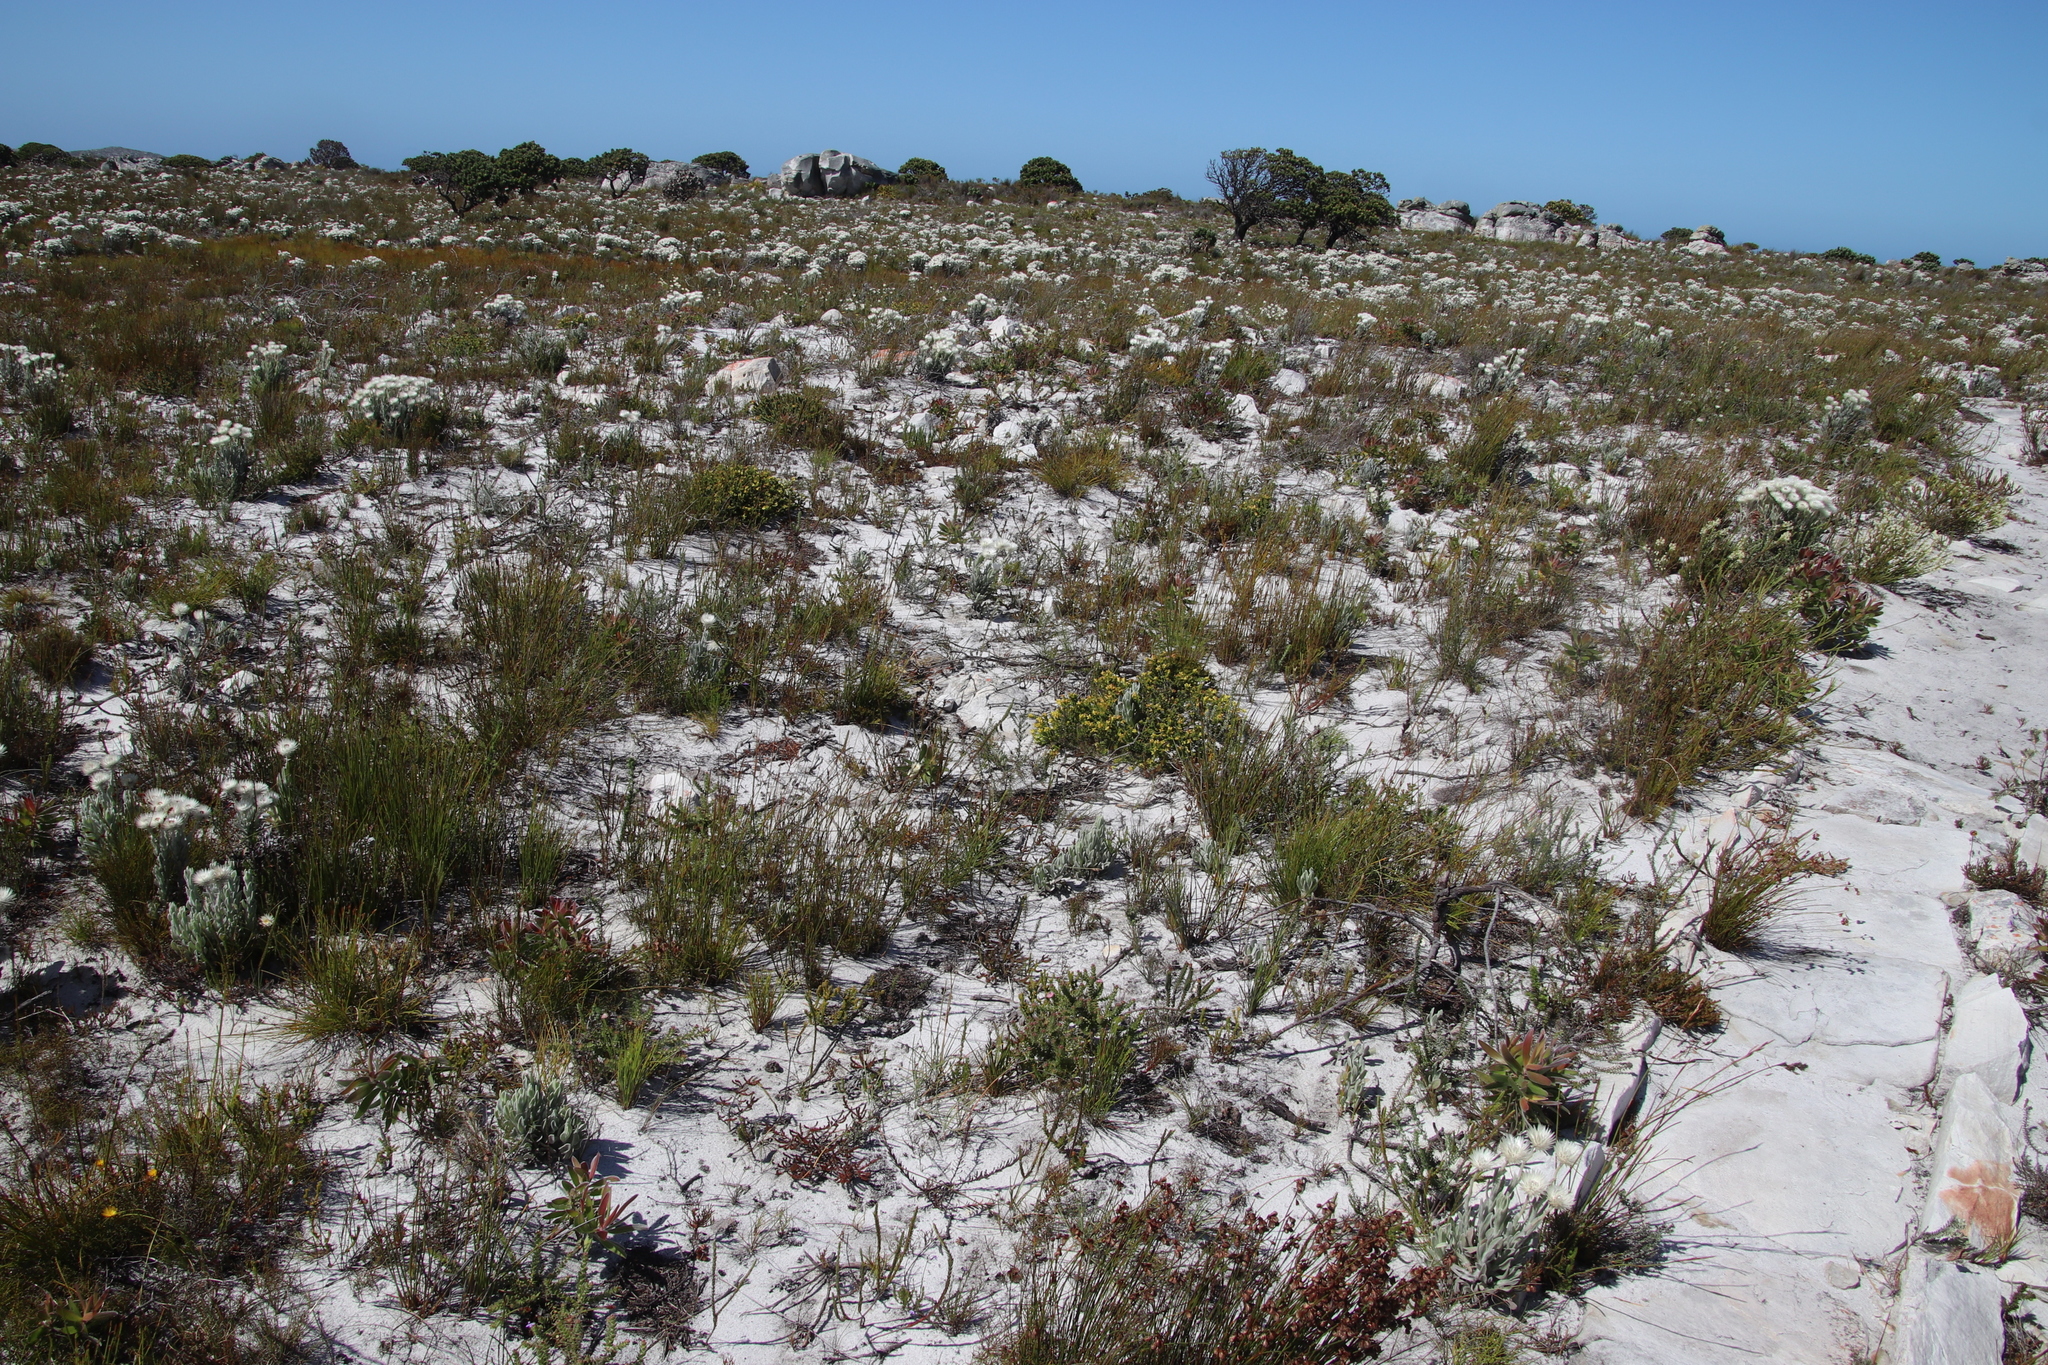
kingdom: Plantae
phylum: Tracheophyta
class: Magnoliopsida
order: Myrtales
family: Penaeaceae
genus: Penaea
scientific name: Penaea mucronata
